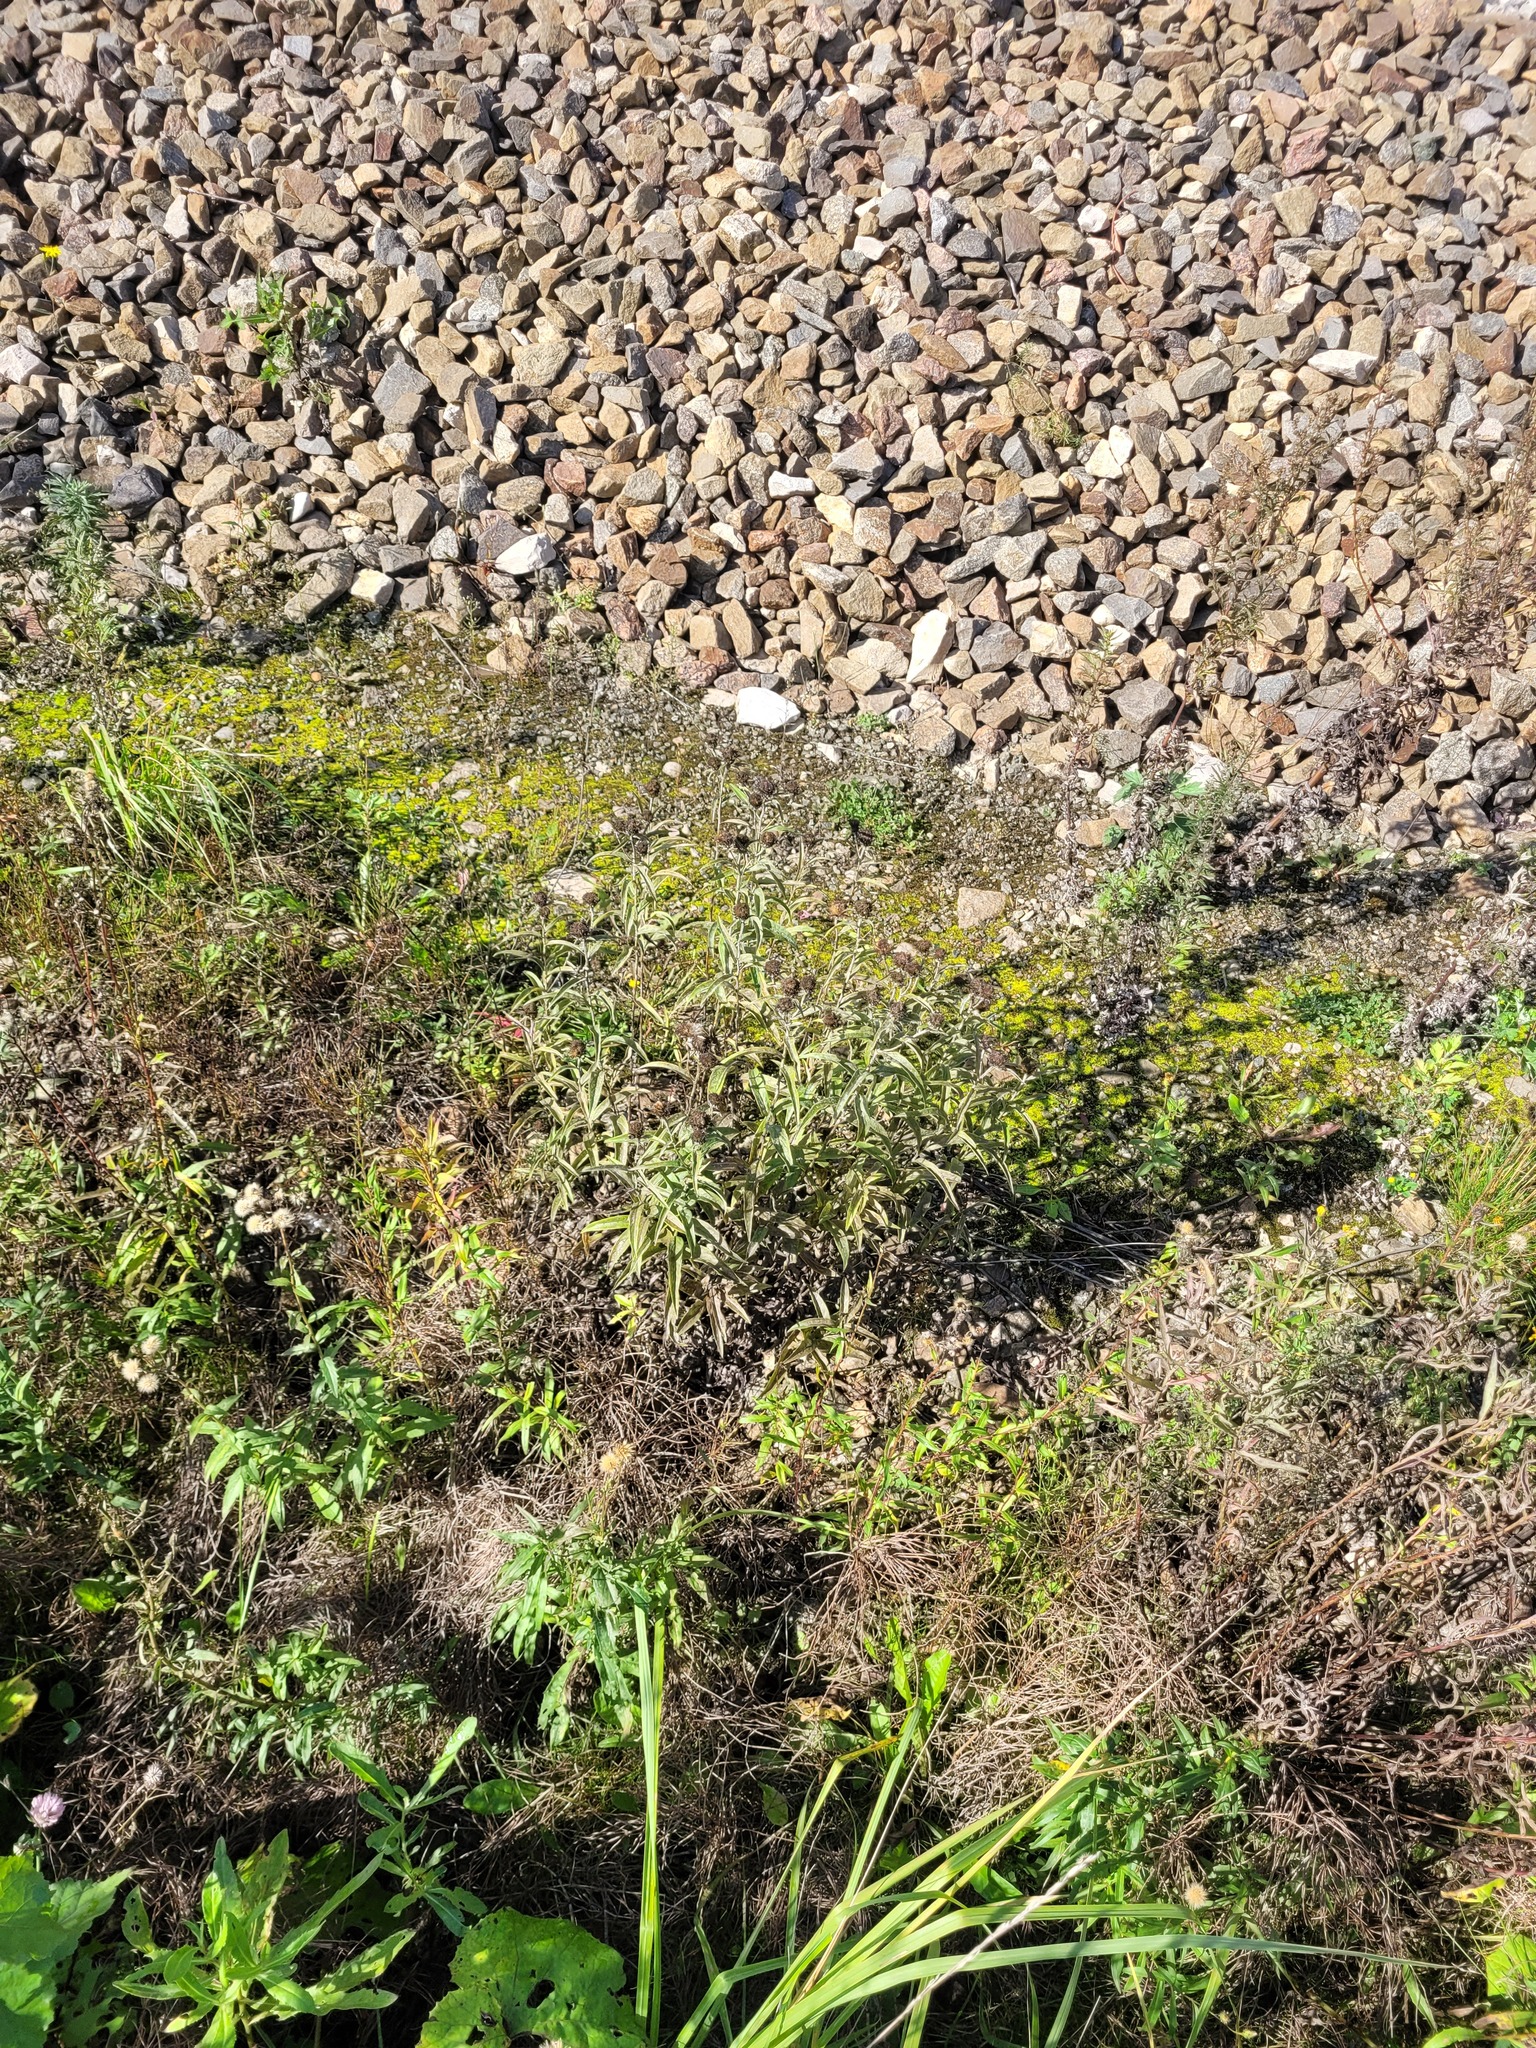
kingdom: Plantae
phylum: Tracheophyta
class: Magnoliopsida
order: Asterales
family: Asteraceae
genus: Pentanema
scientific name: Pentanema salicinum
